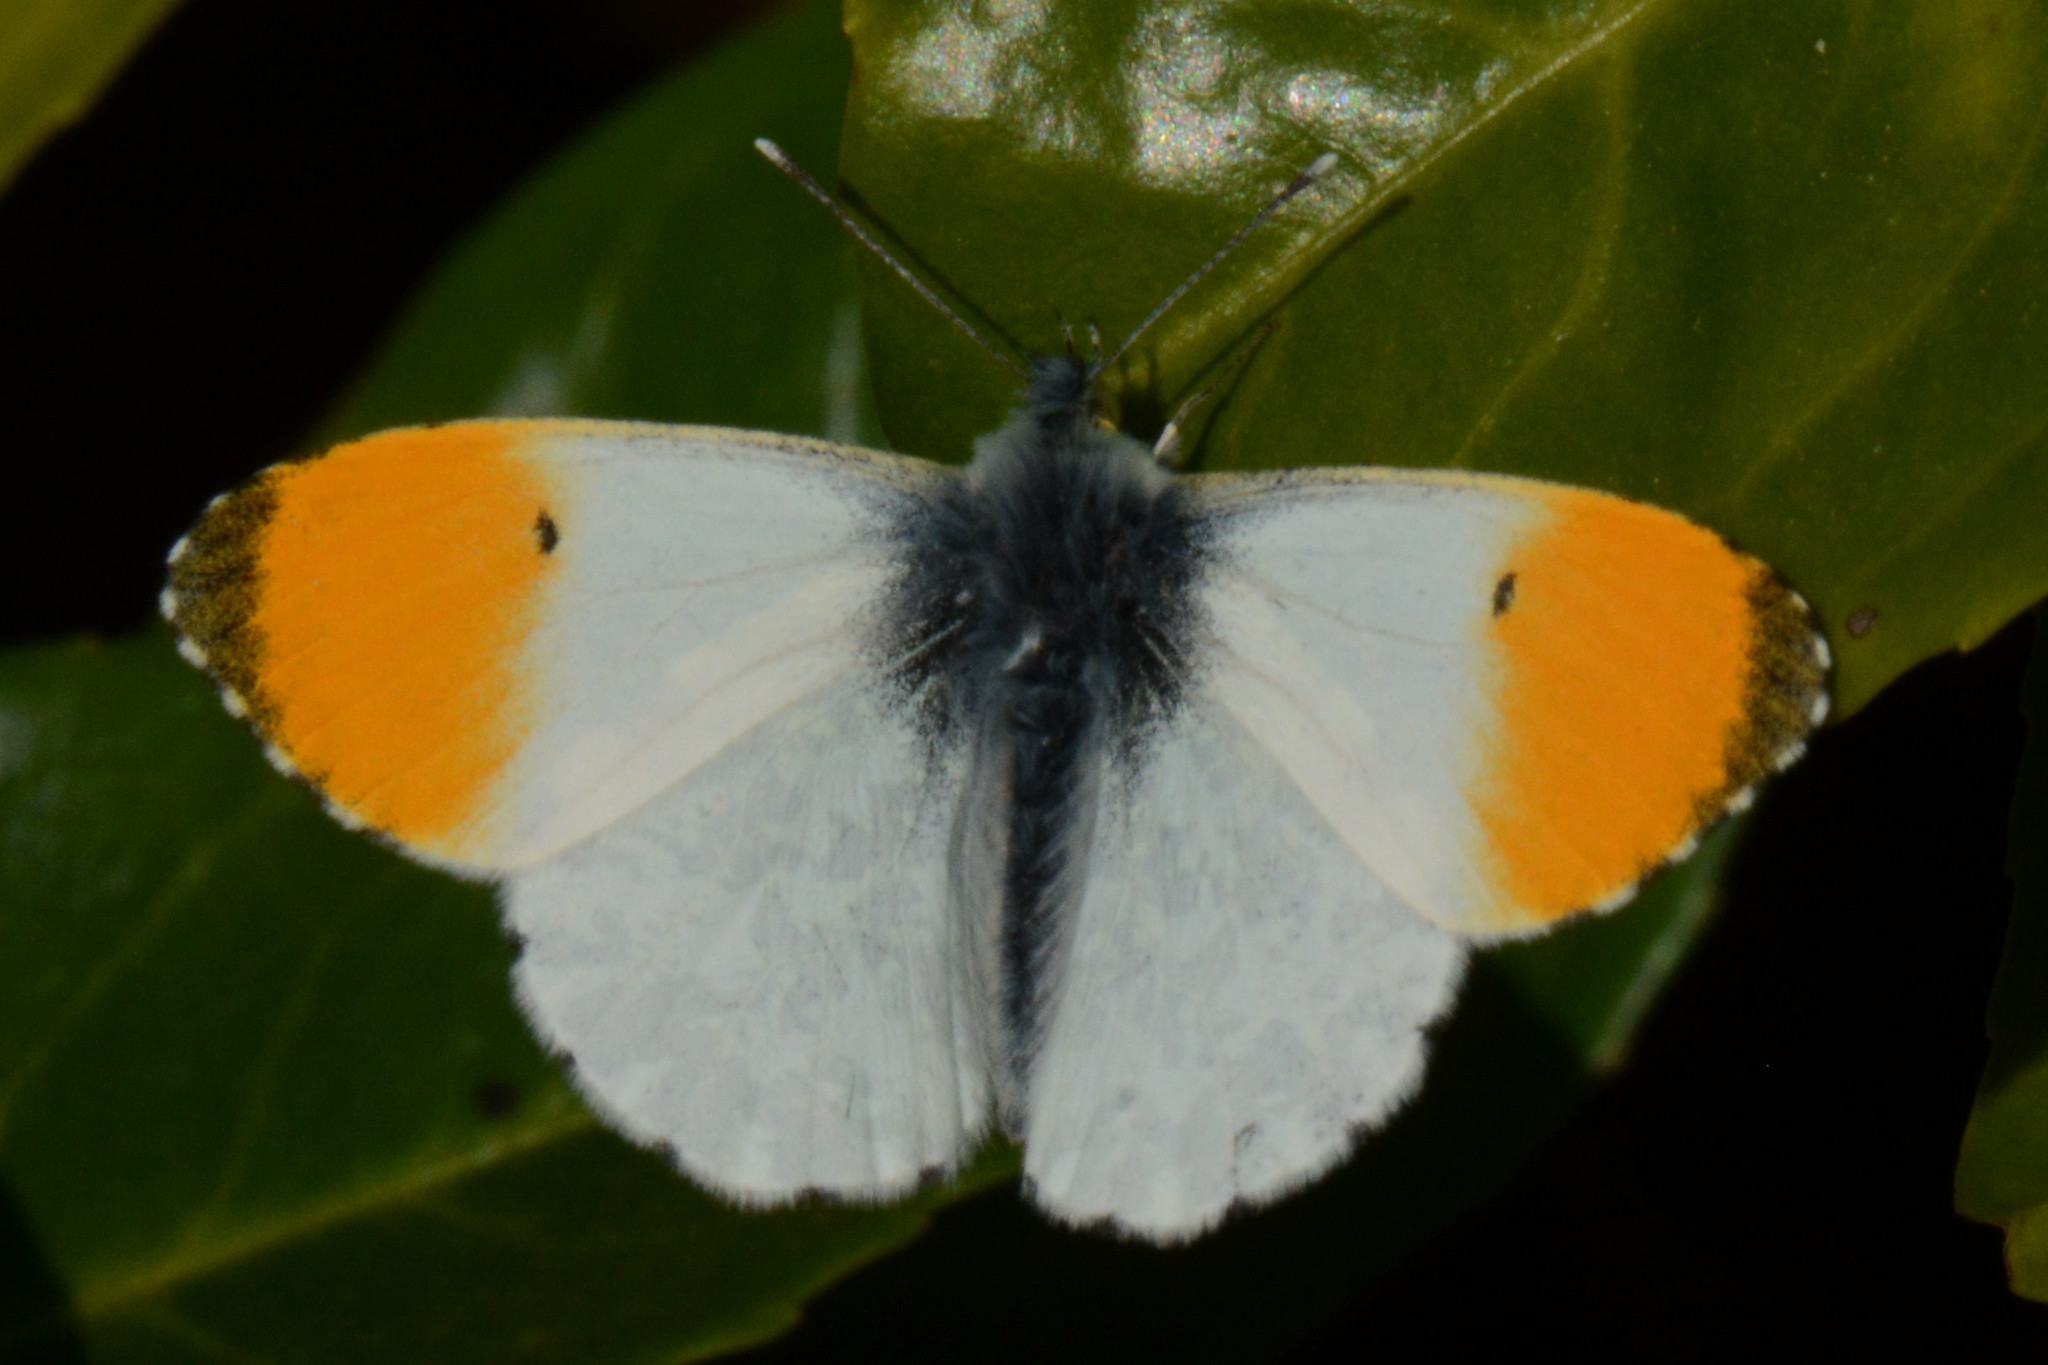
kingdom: Animalia
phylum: Arthropoda
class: Insecta
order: Lepidoptera
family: Pieridae
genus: Anthocharis
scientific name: Anthocharis cardamines
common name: Orange-tip
